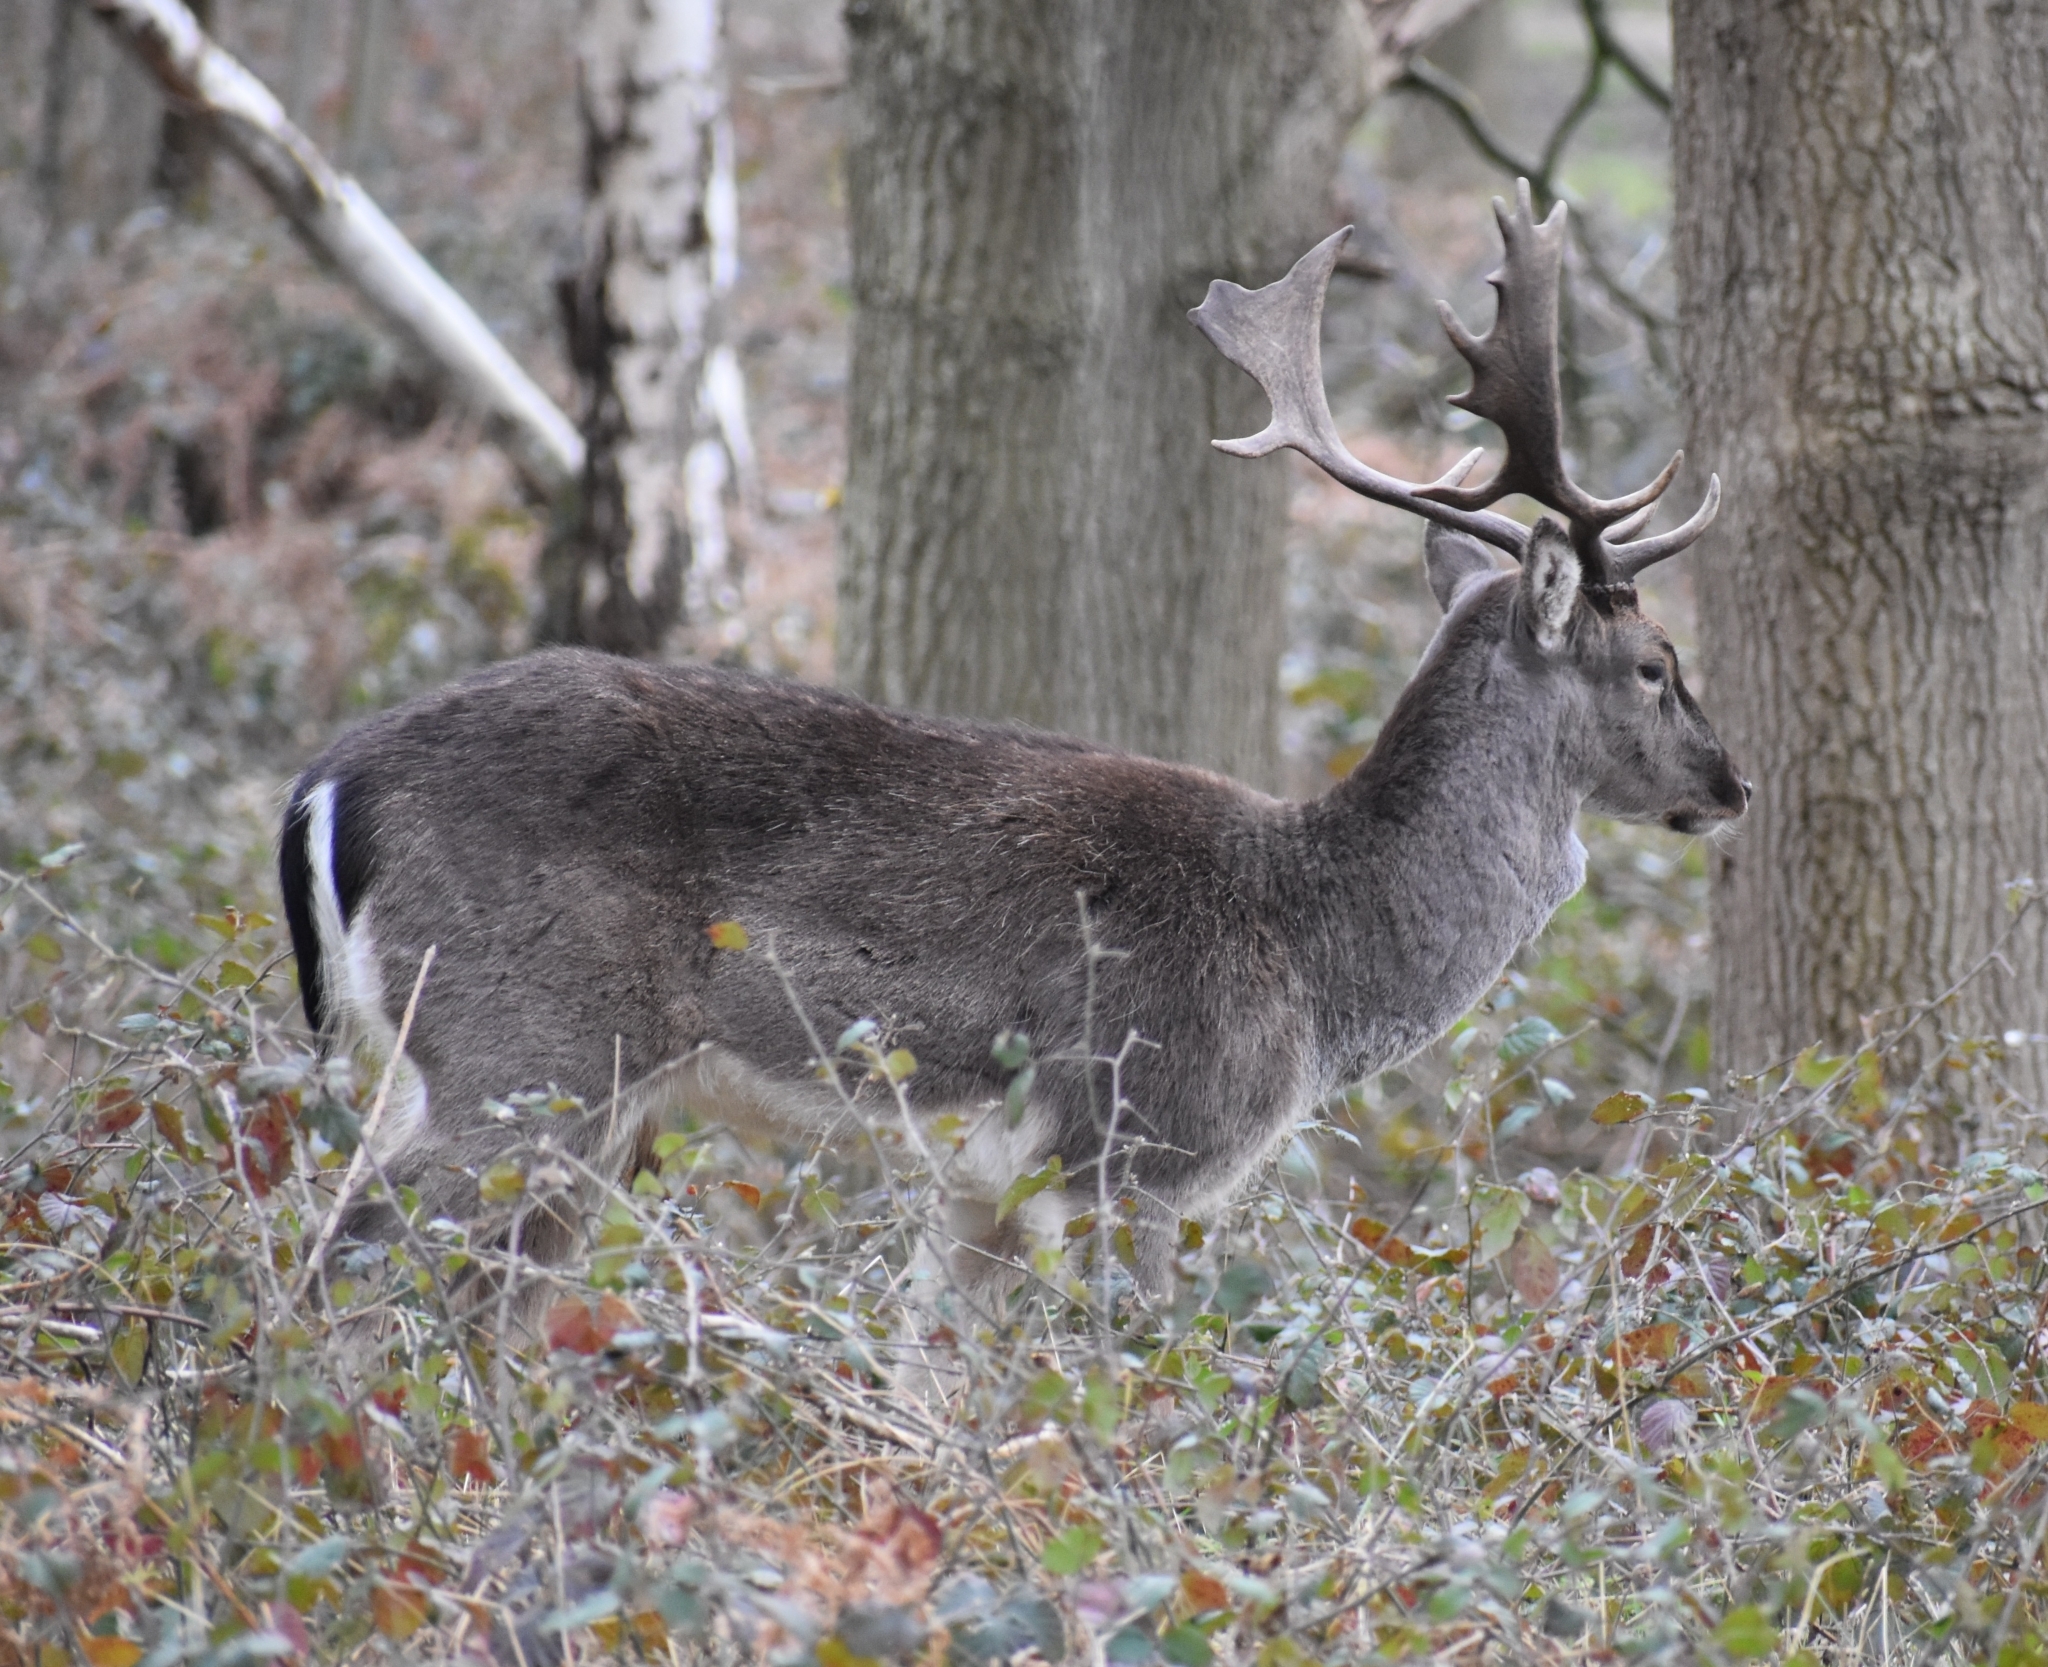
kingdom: Animalia
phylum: Chordata
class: Mammalia
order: Artiodactyla
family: Cervidae
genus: Dama
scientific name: Dama dama
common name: Fallow deer
